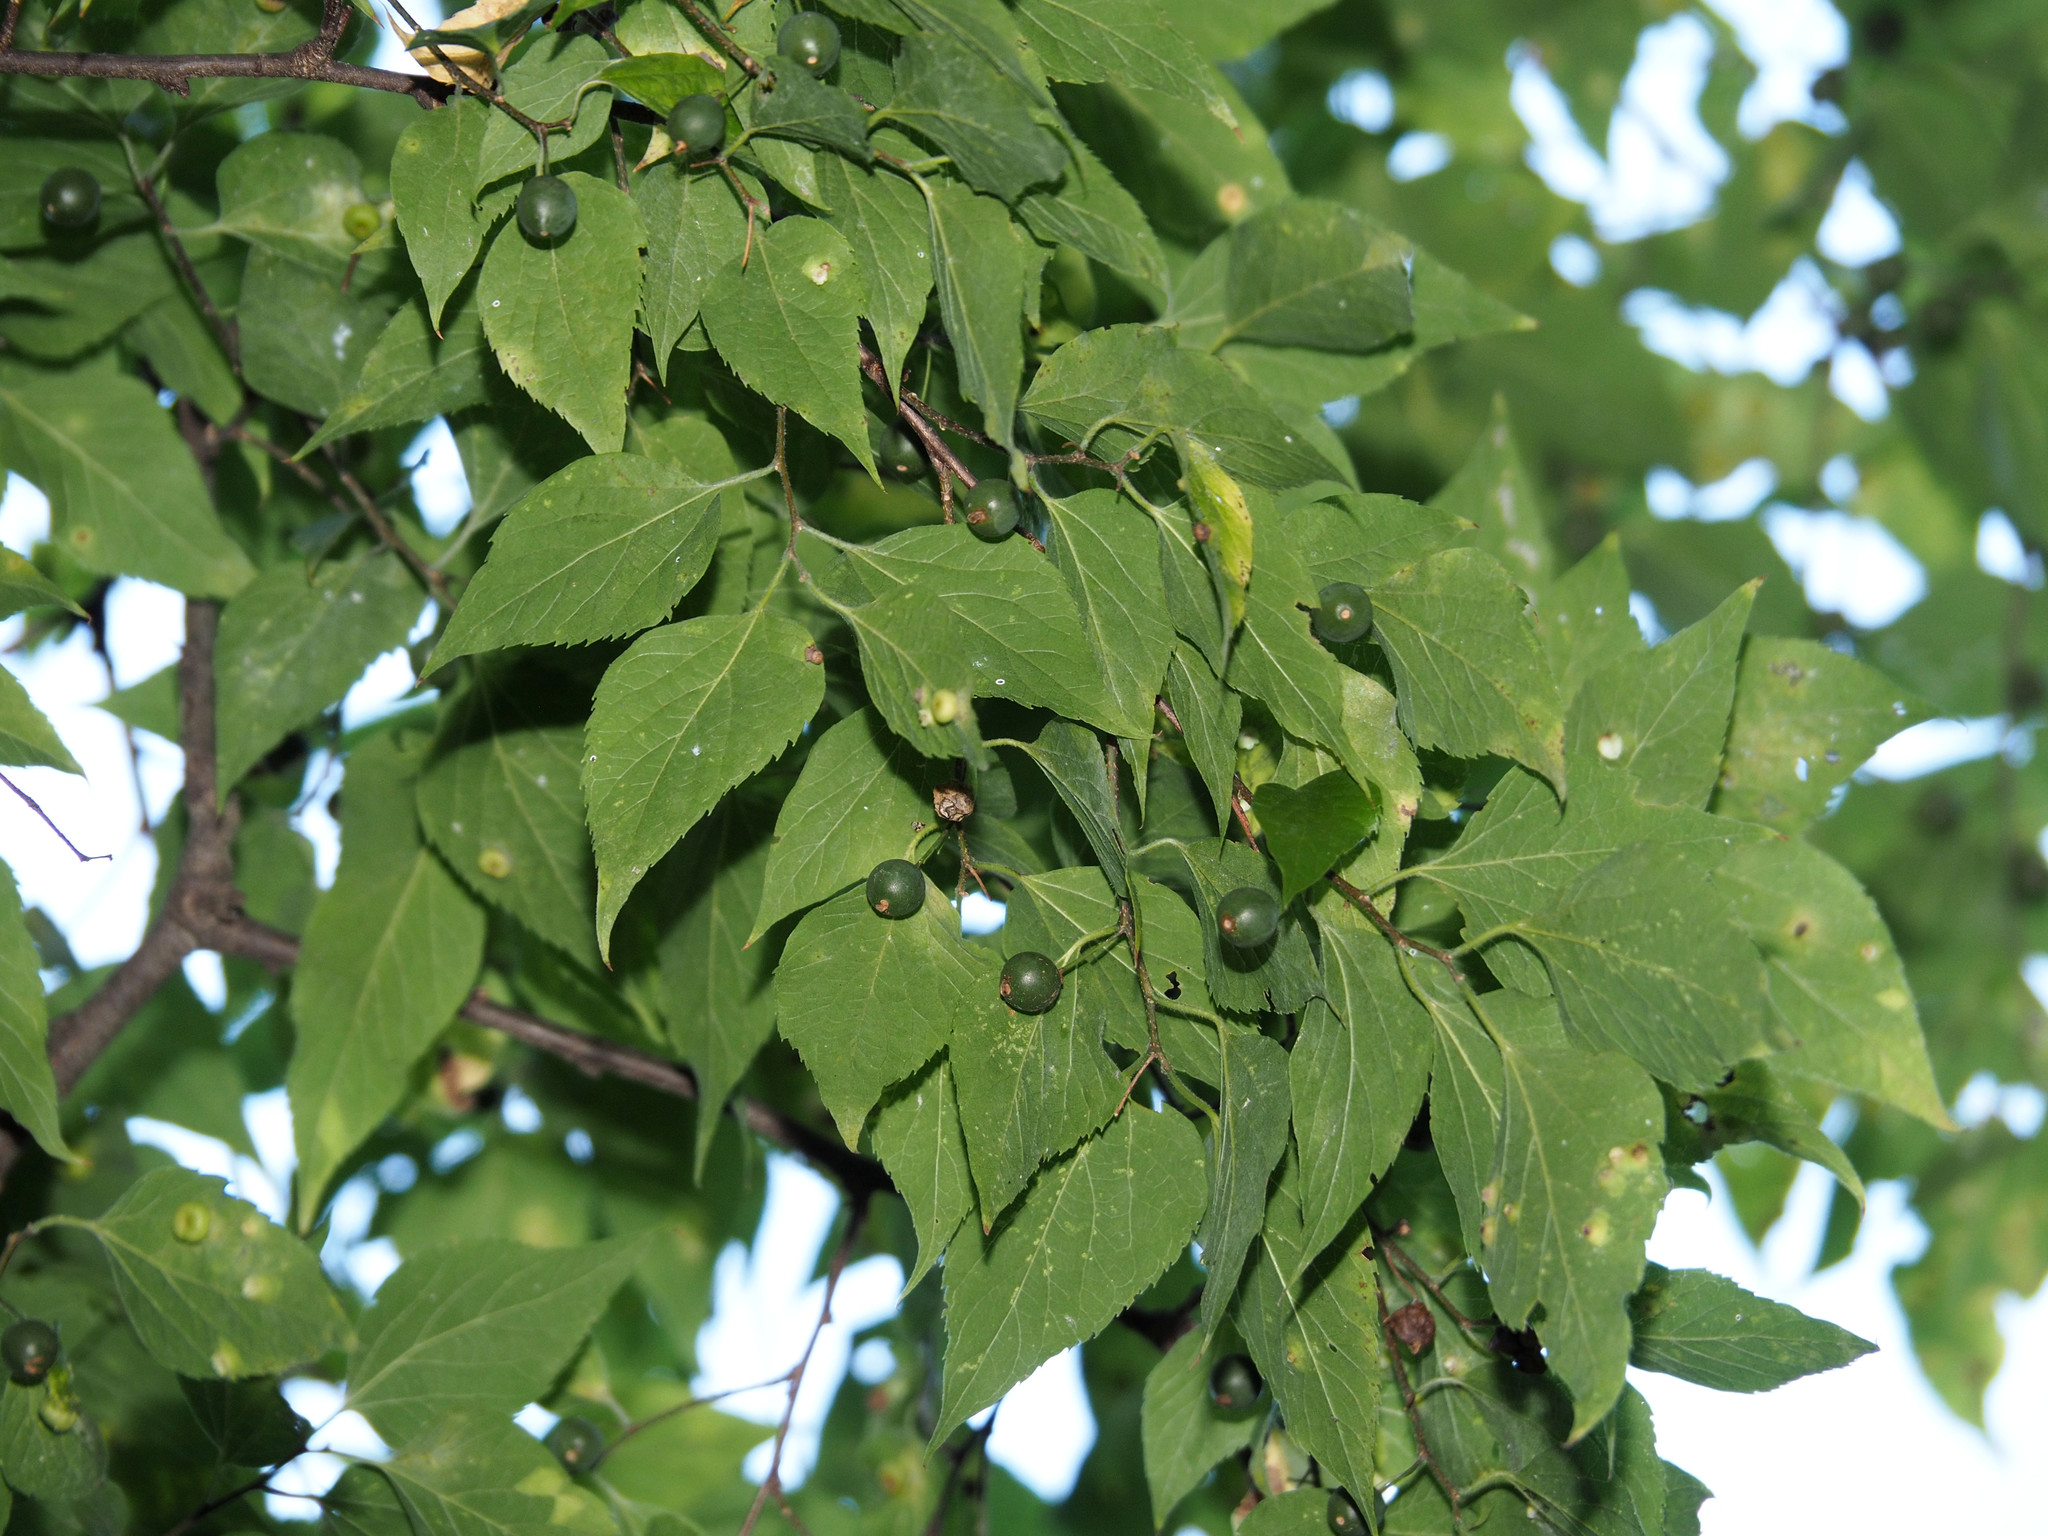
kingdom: Plantae
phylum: Tracheophyta
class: Magnoliopsida
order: Rosales
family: Cannabaceae
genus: Celtis
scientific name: Celtis occidentalis
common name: Common hackberry
